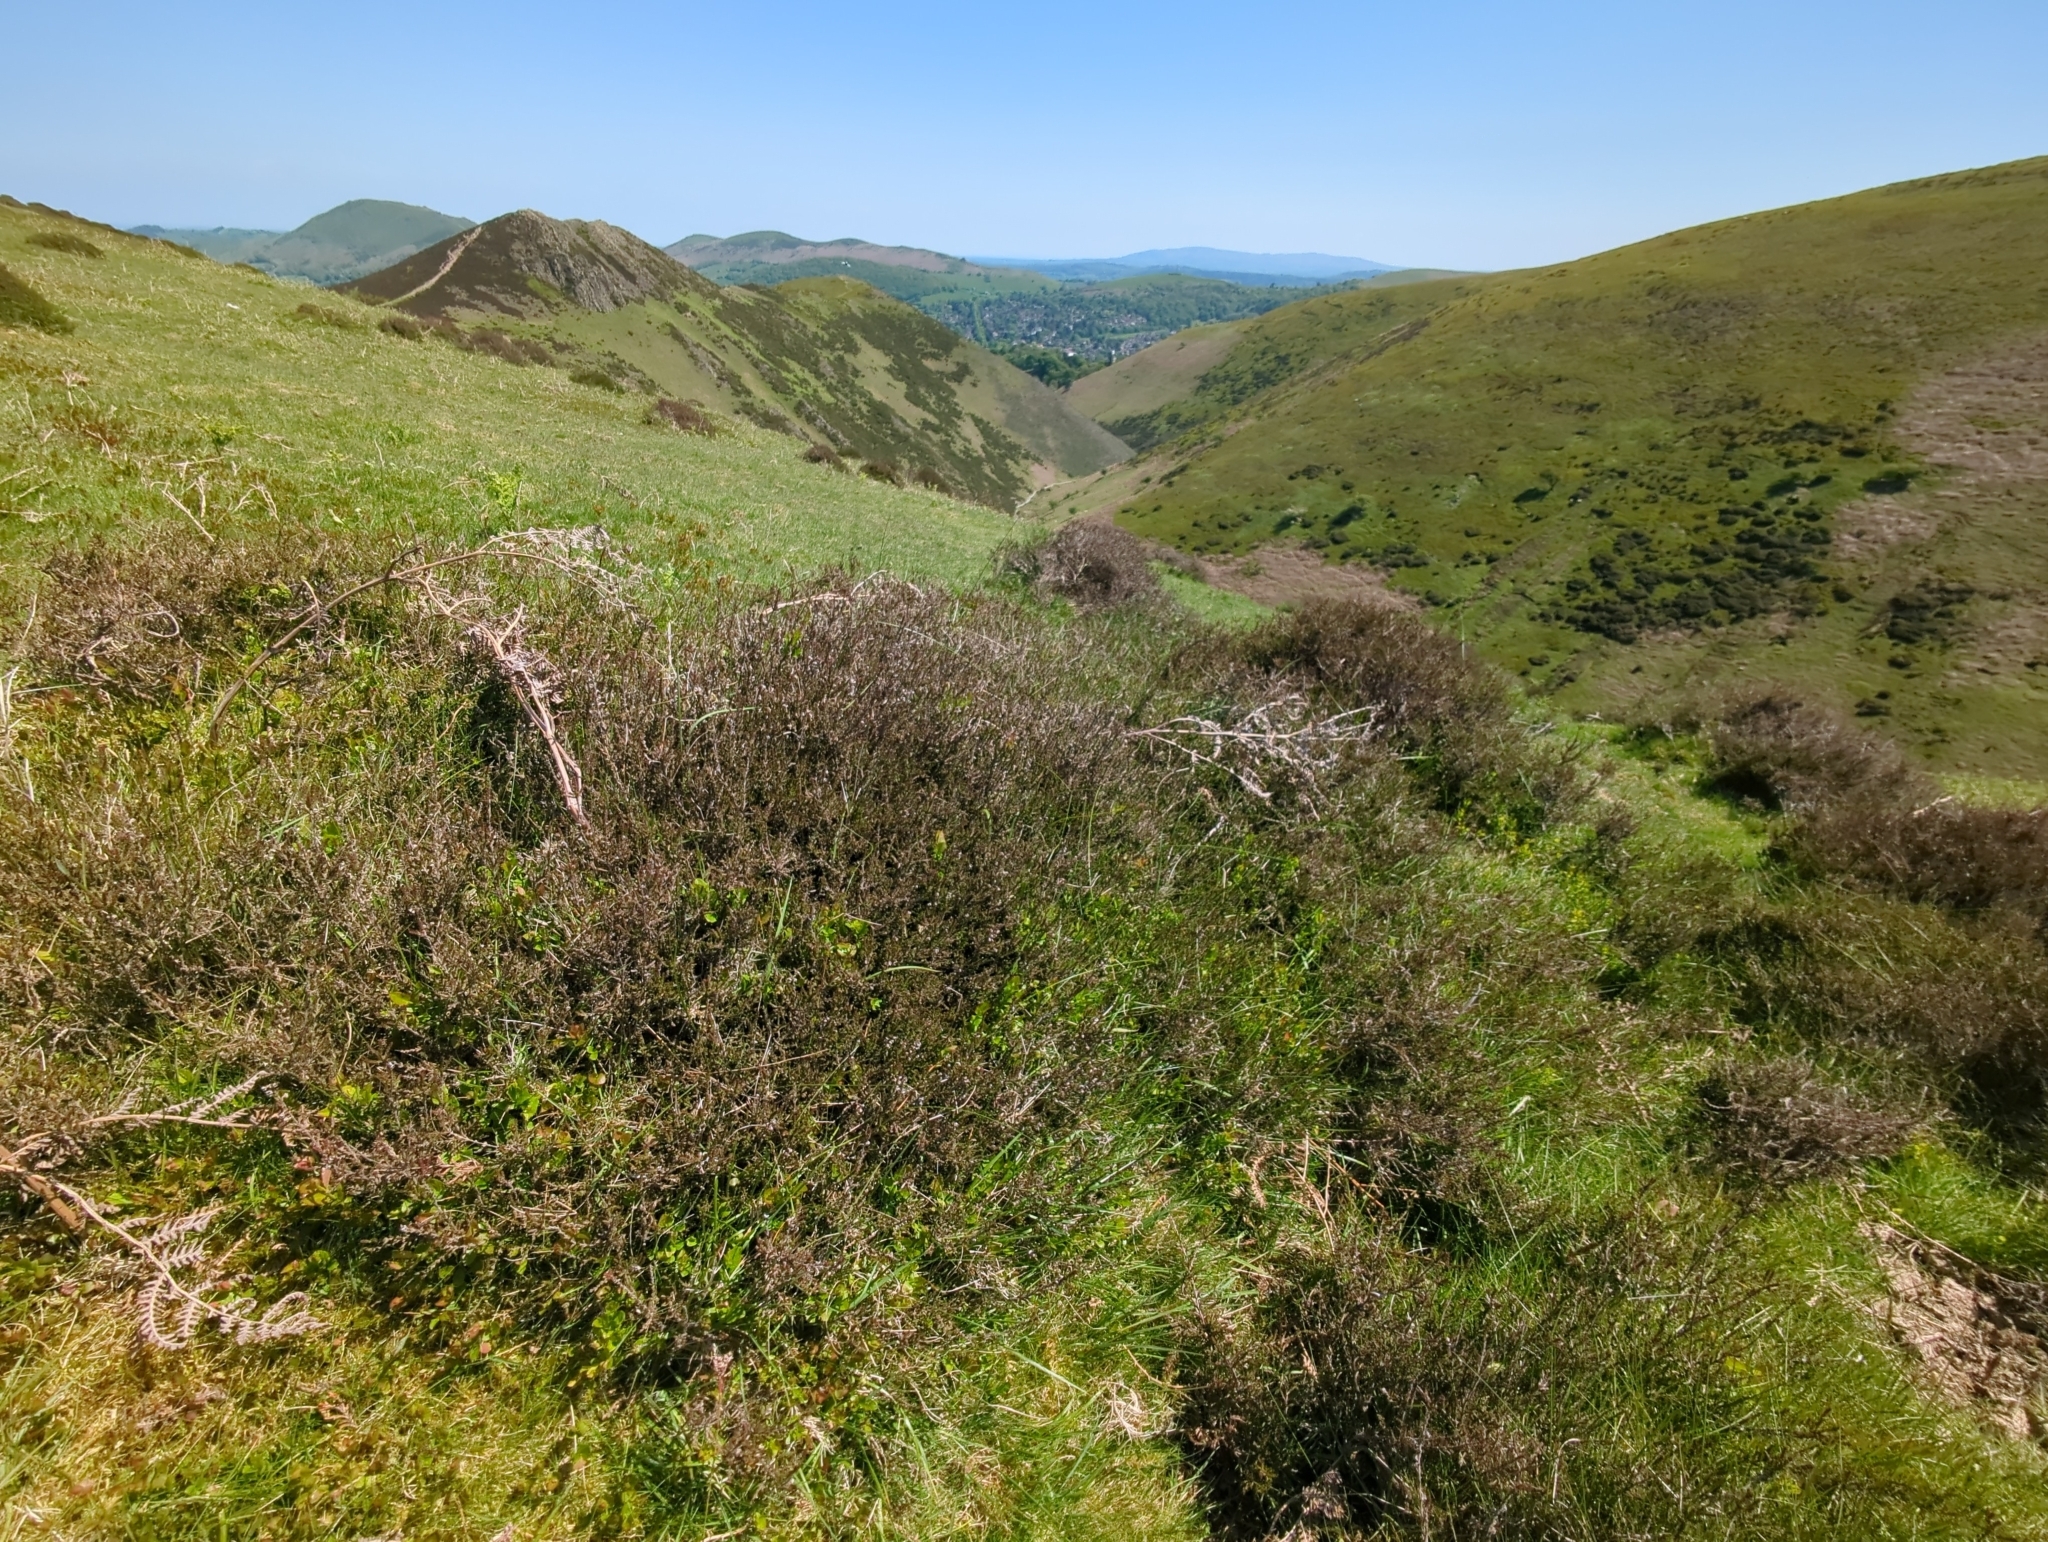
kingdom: Plantae
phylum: Tracheophyta
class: Magnoliopsida
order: Ericales
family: Ericaceae
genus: Calluna
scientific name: Calluna vulgaris
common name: Heather
